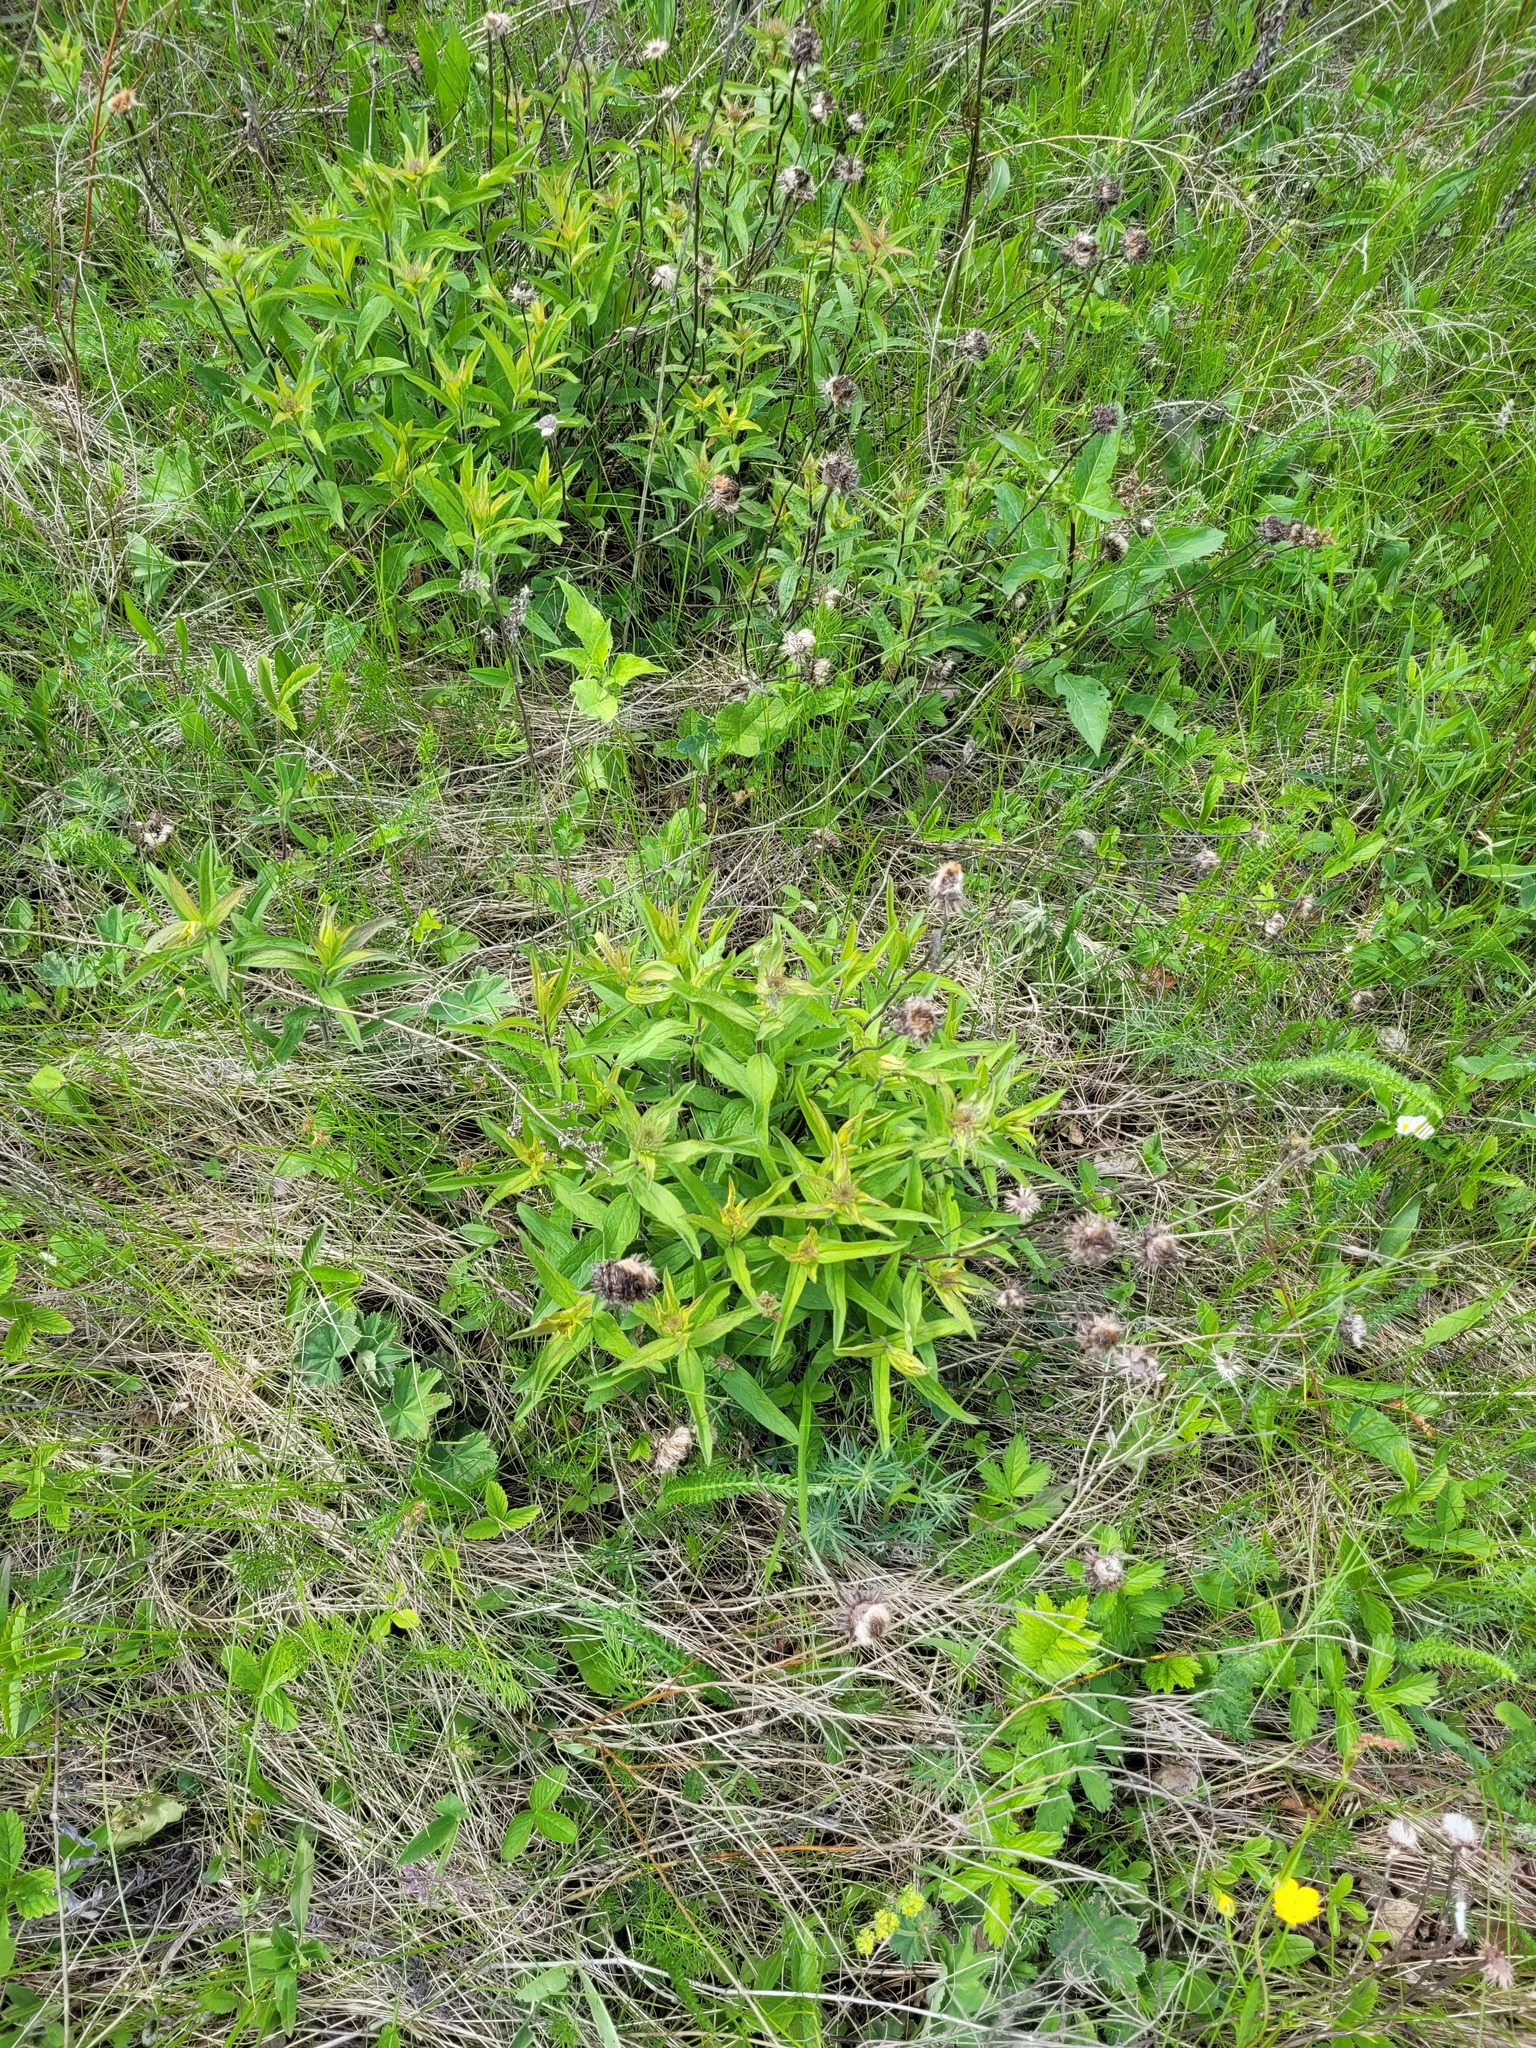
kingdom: Plantae
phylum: Tracheophyta
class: Magnoliopsida
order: Asterales
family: Asteraceae
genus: Pentanema
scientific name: Pentanema hirtum
